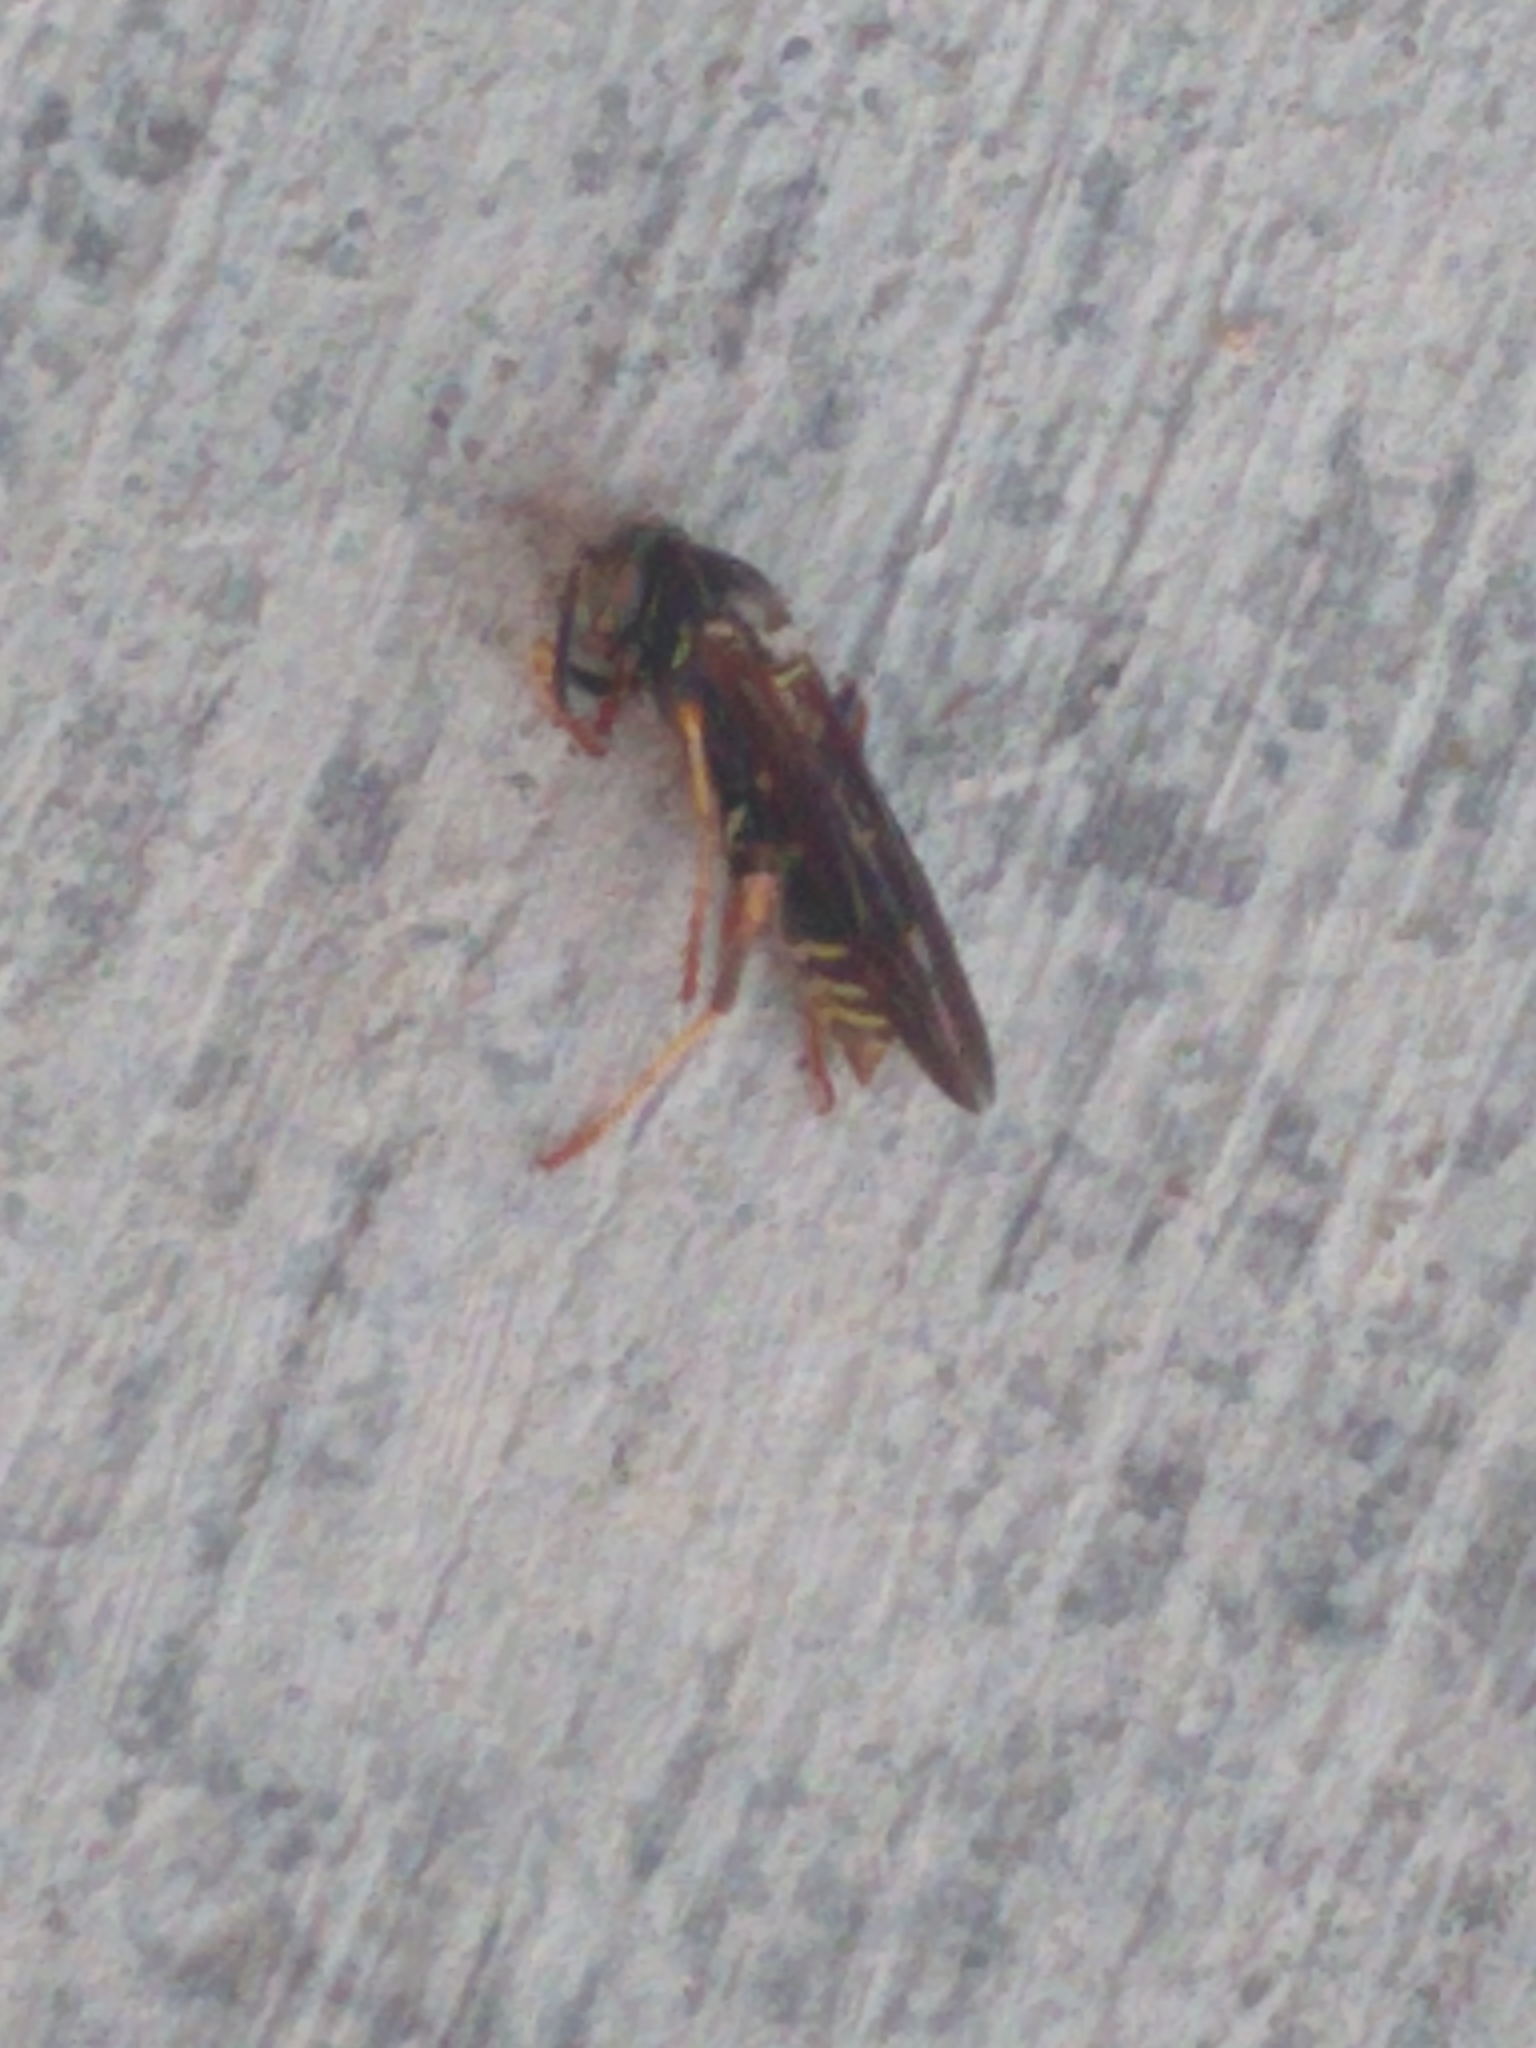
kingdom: Animalia
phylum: Arthropoda
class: Insecta
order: Hymenoptera
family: Eumenidae
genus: Polistes
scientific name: Polistes fuscatus
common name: Dark paper wasp
